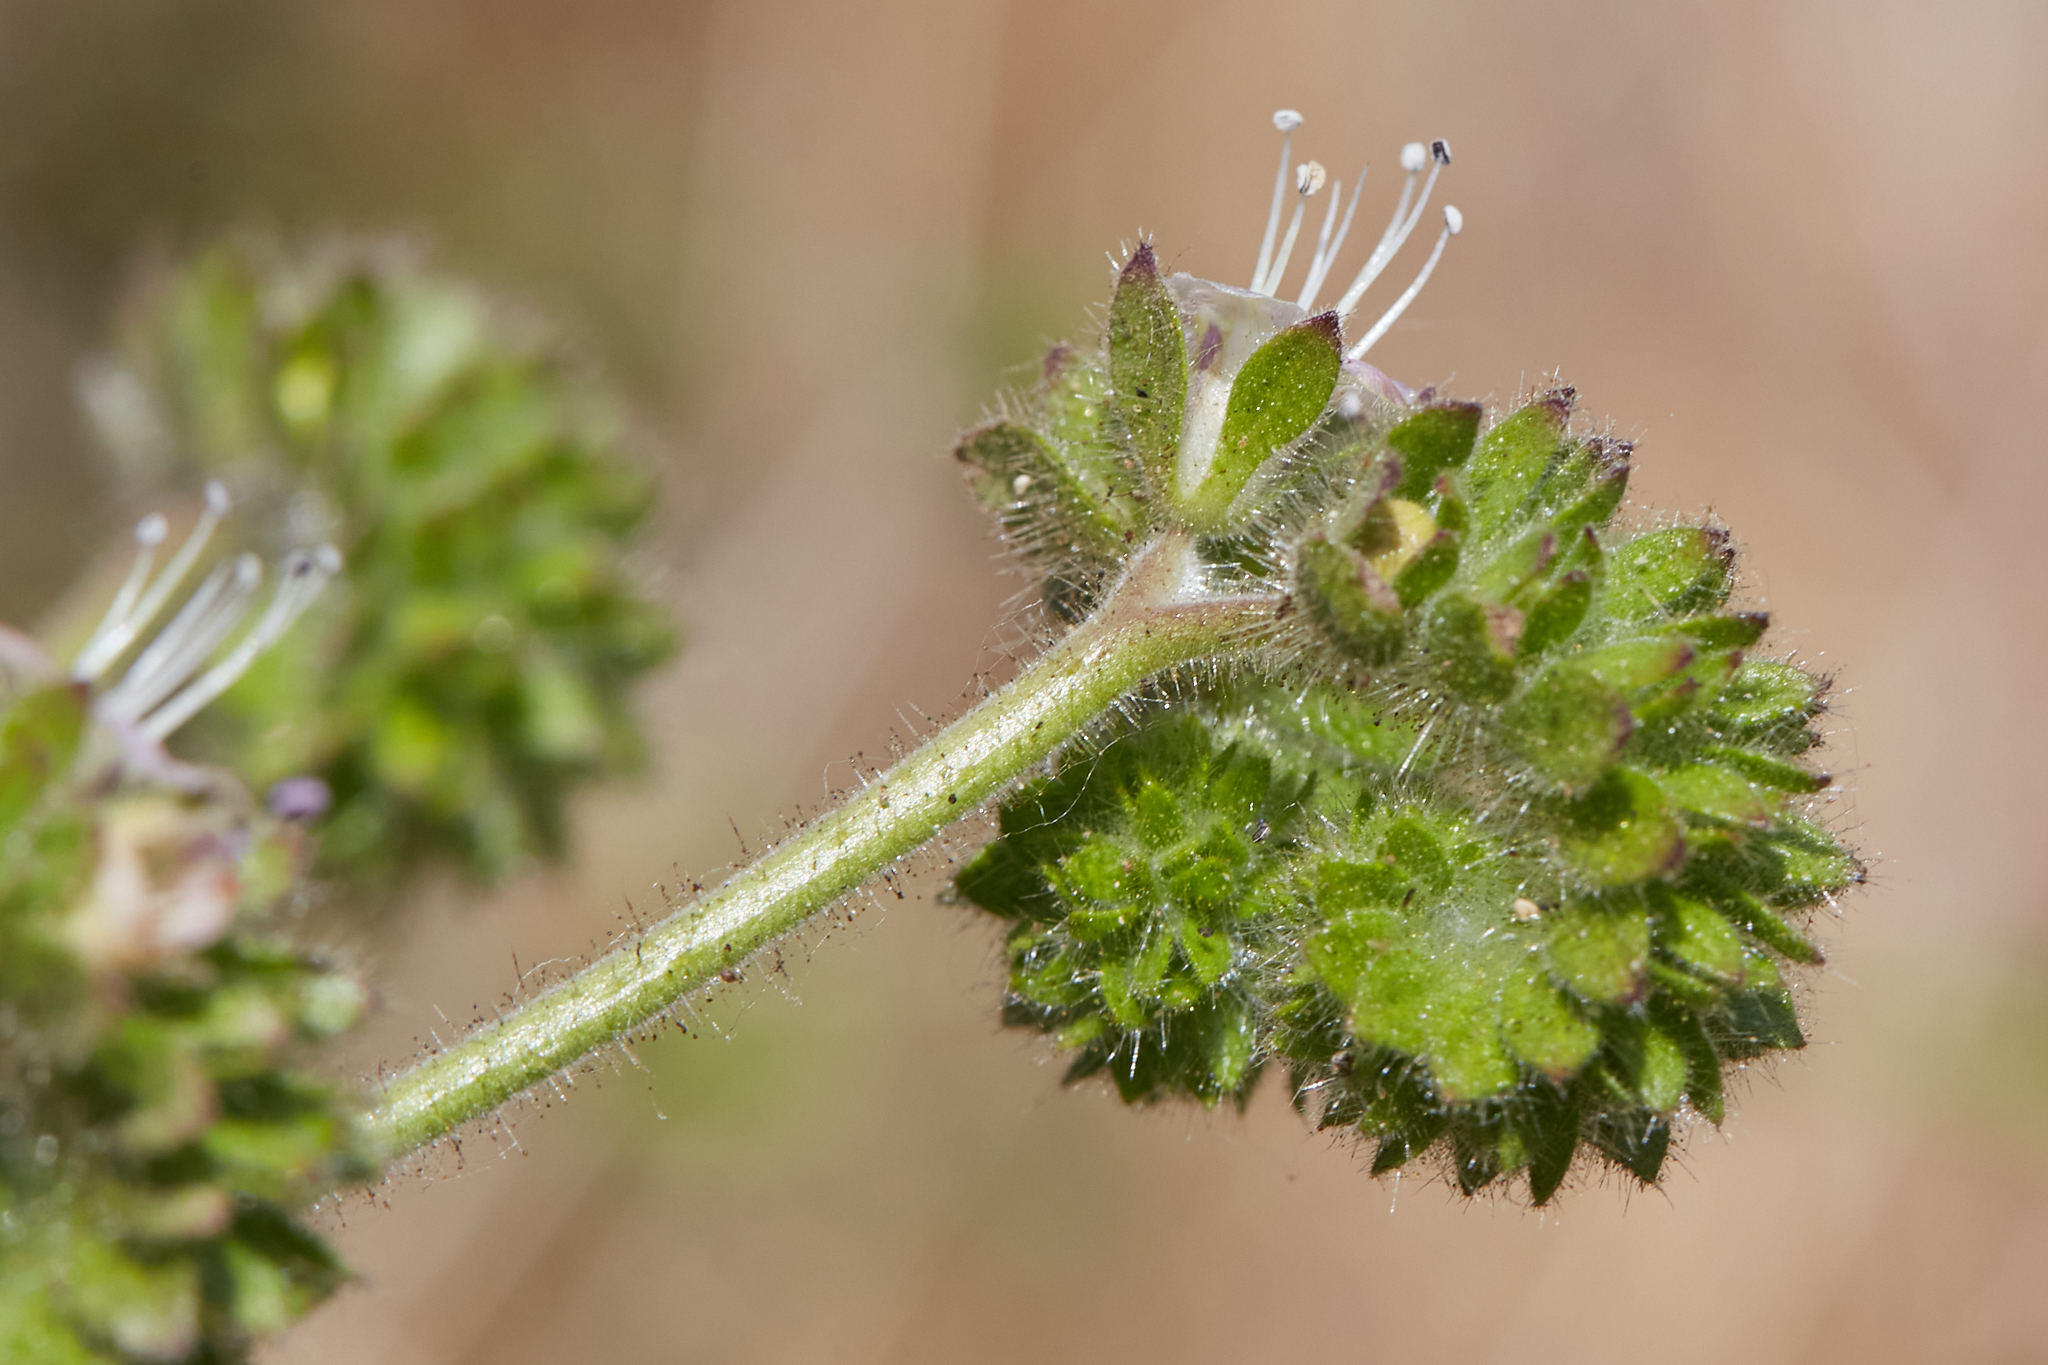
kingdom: Plantae
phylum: Tracheophyta
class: Magnoliopsida
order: Boraginales
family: Hydrophyllaceae
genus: Phacelia
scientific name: Phacelia ramosissima
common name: Branching phacelia
